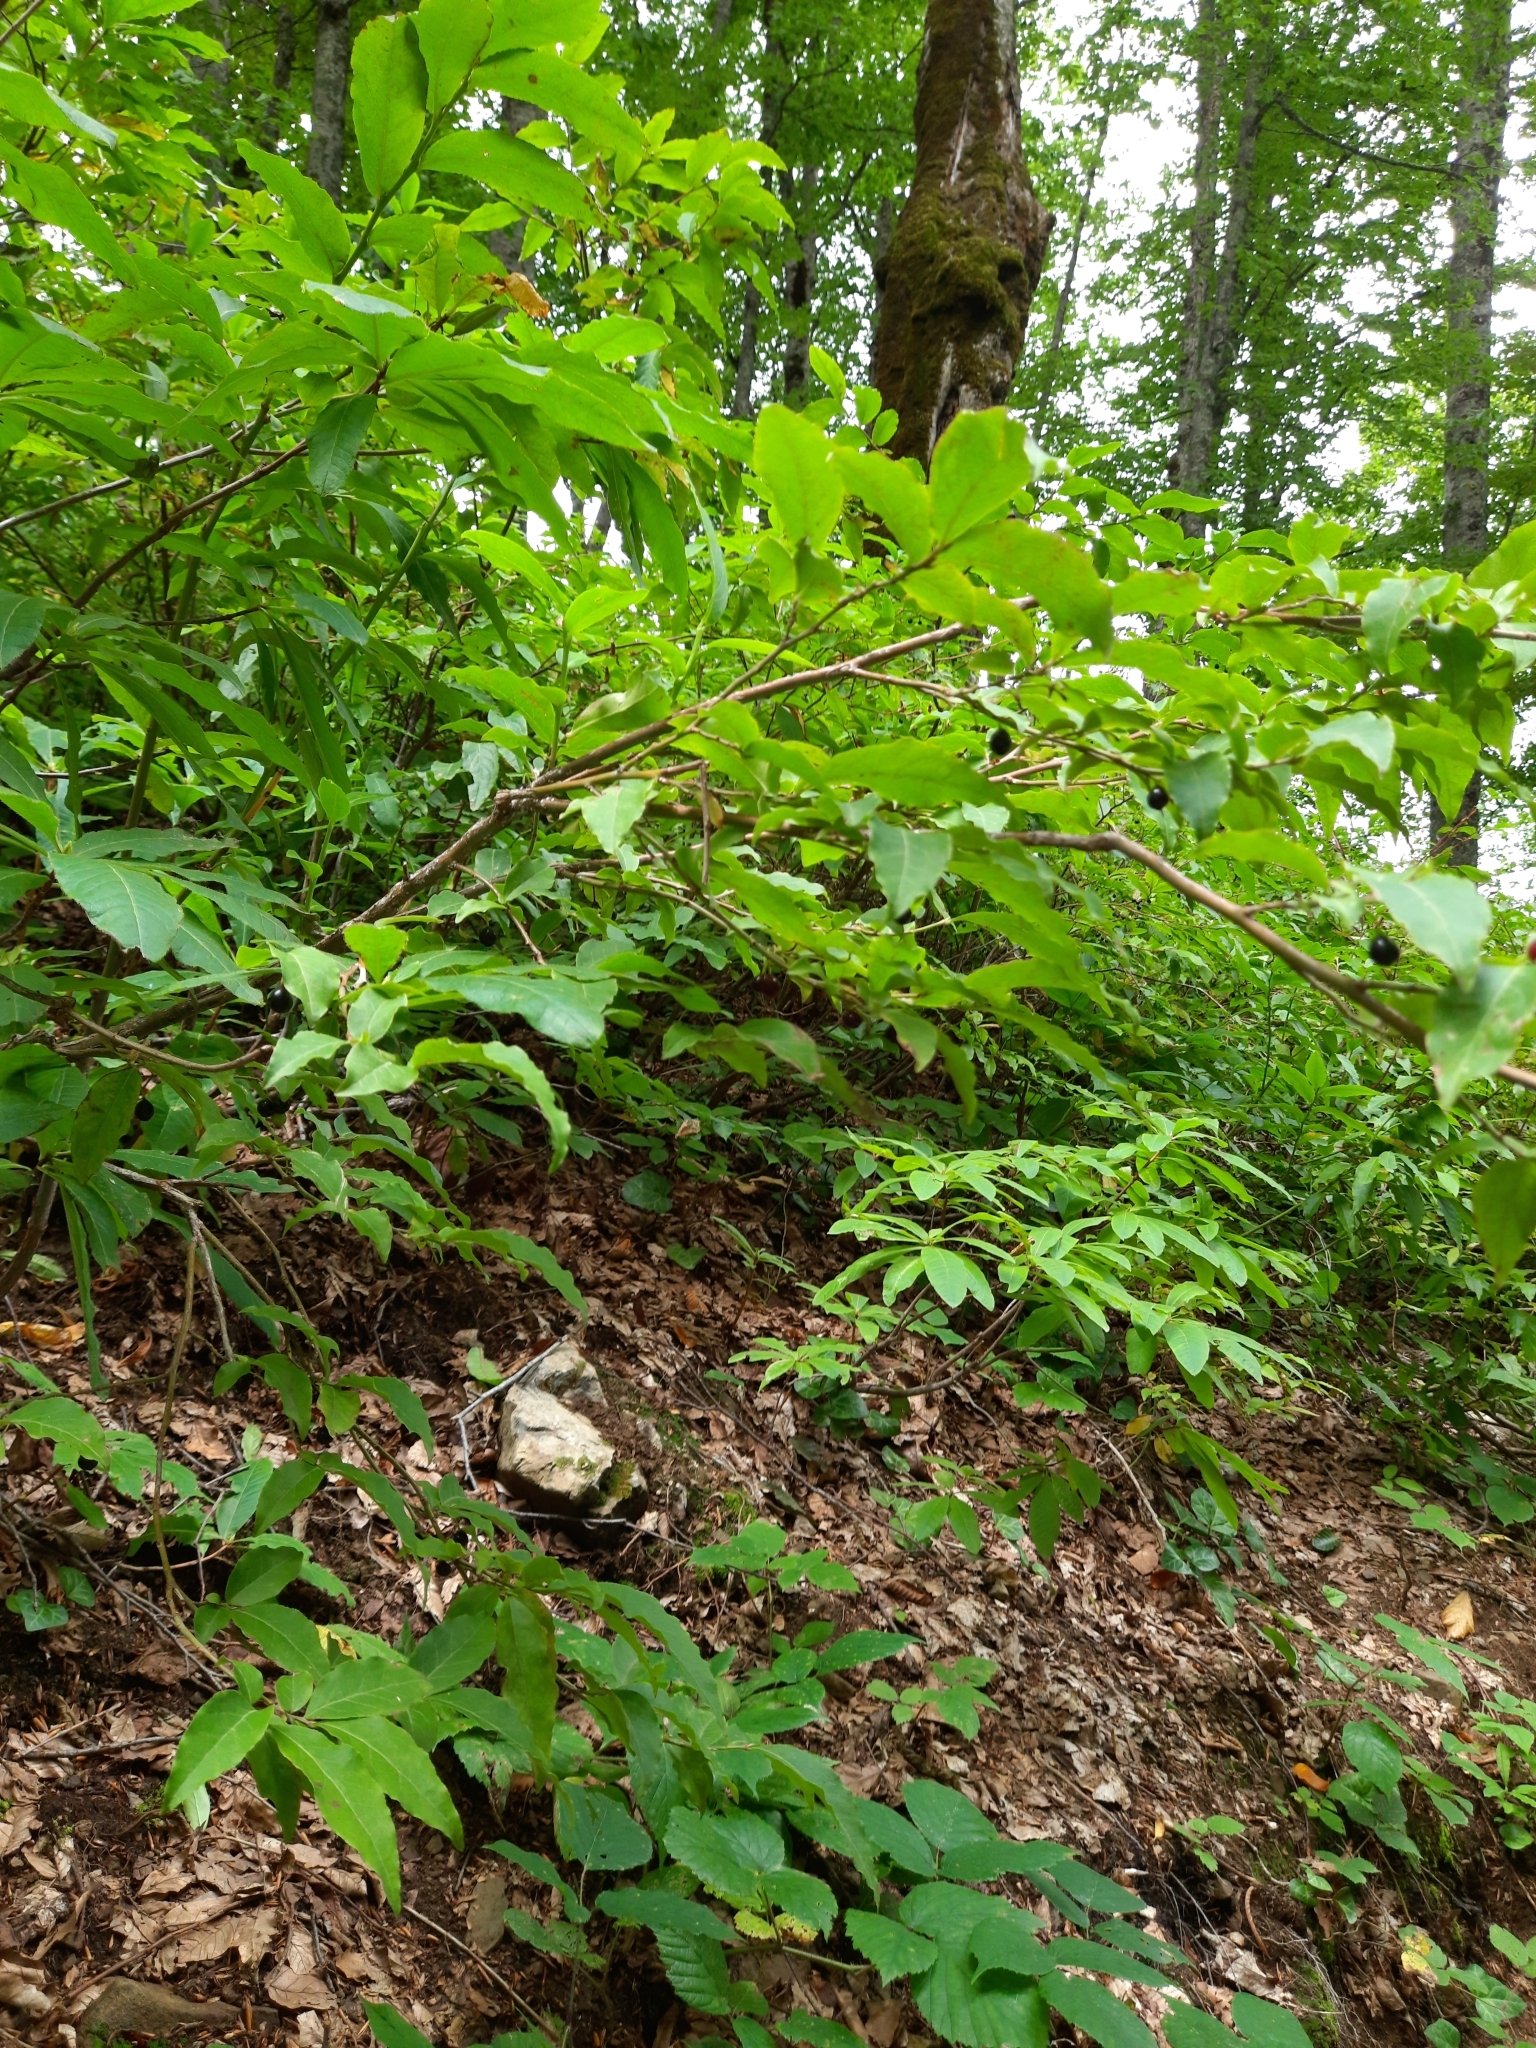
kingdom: Plantae
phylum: Tracheophyta
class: Magnoliopsida
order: Ericales
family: Ericaceae
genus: Vaccinium
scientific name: Vaccinium arctostaphylos
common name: Caucasian whortleberry
